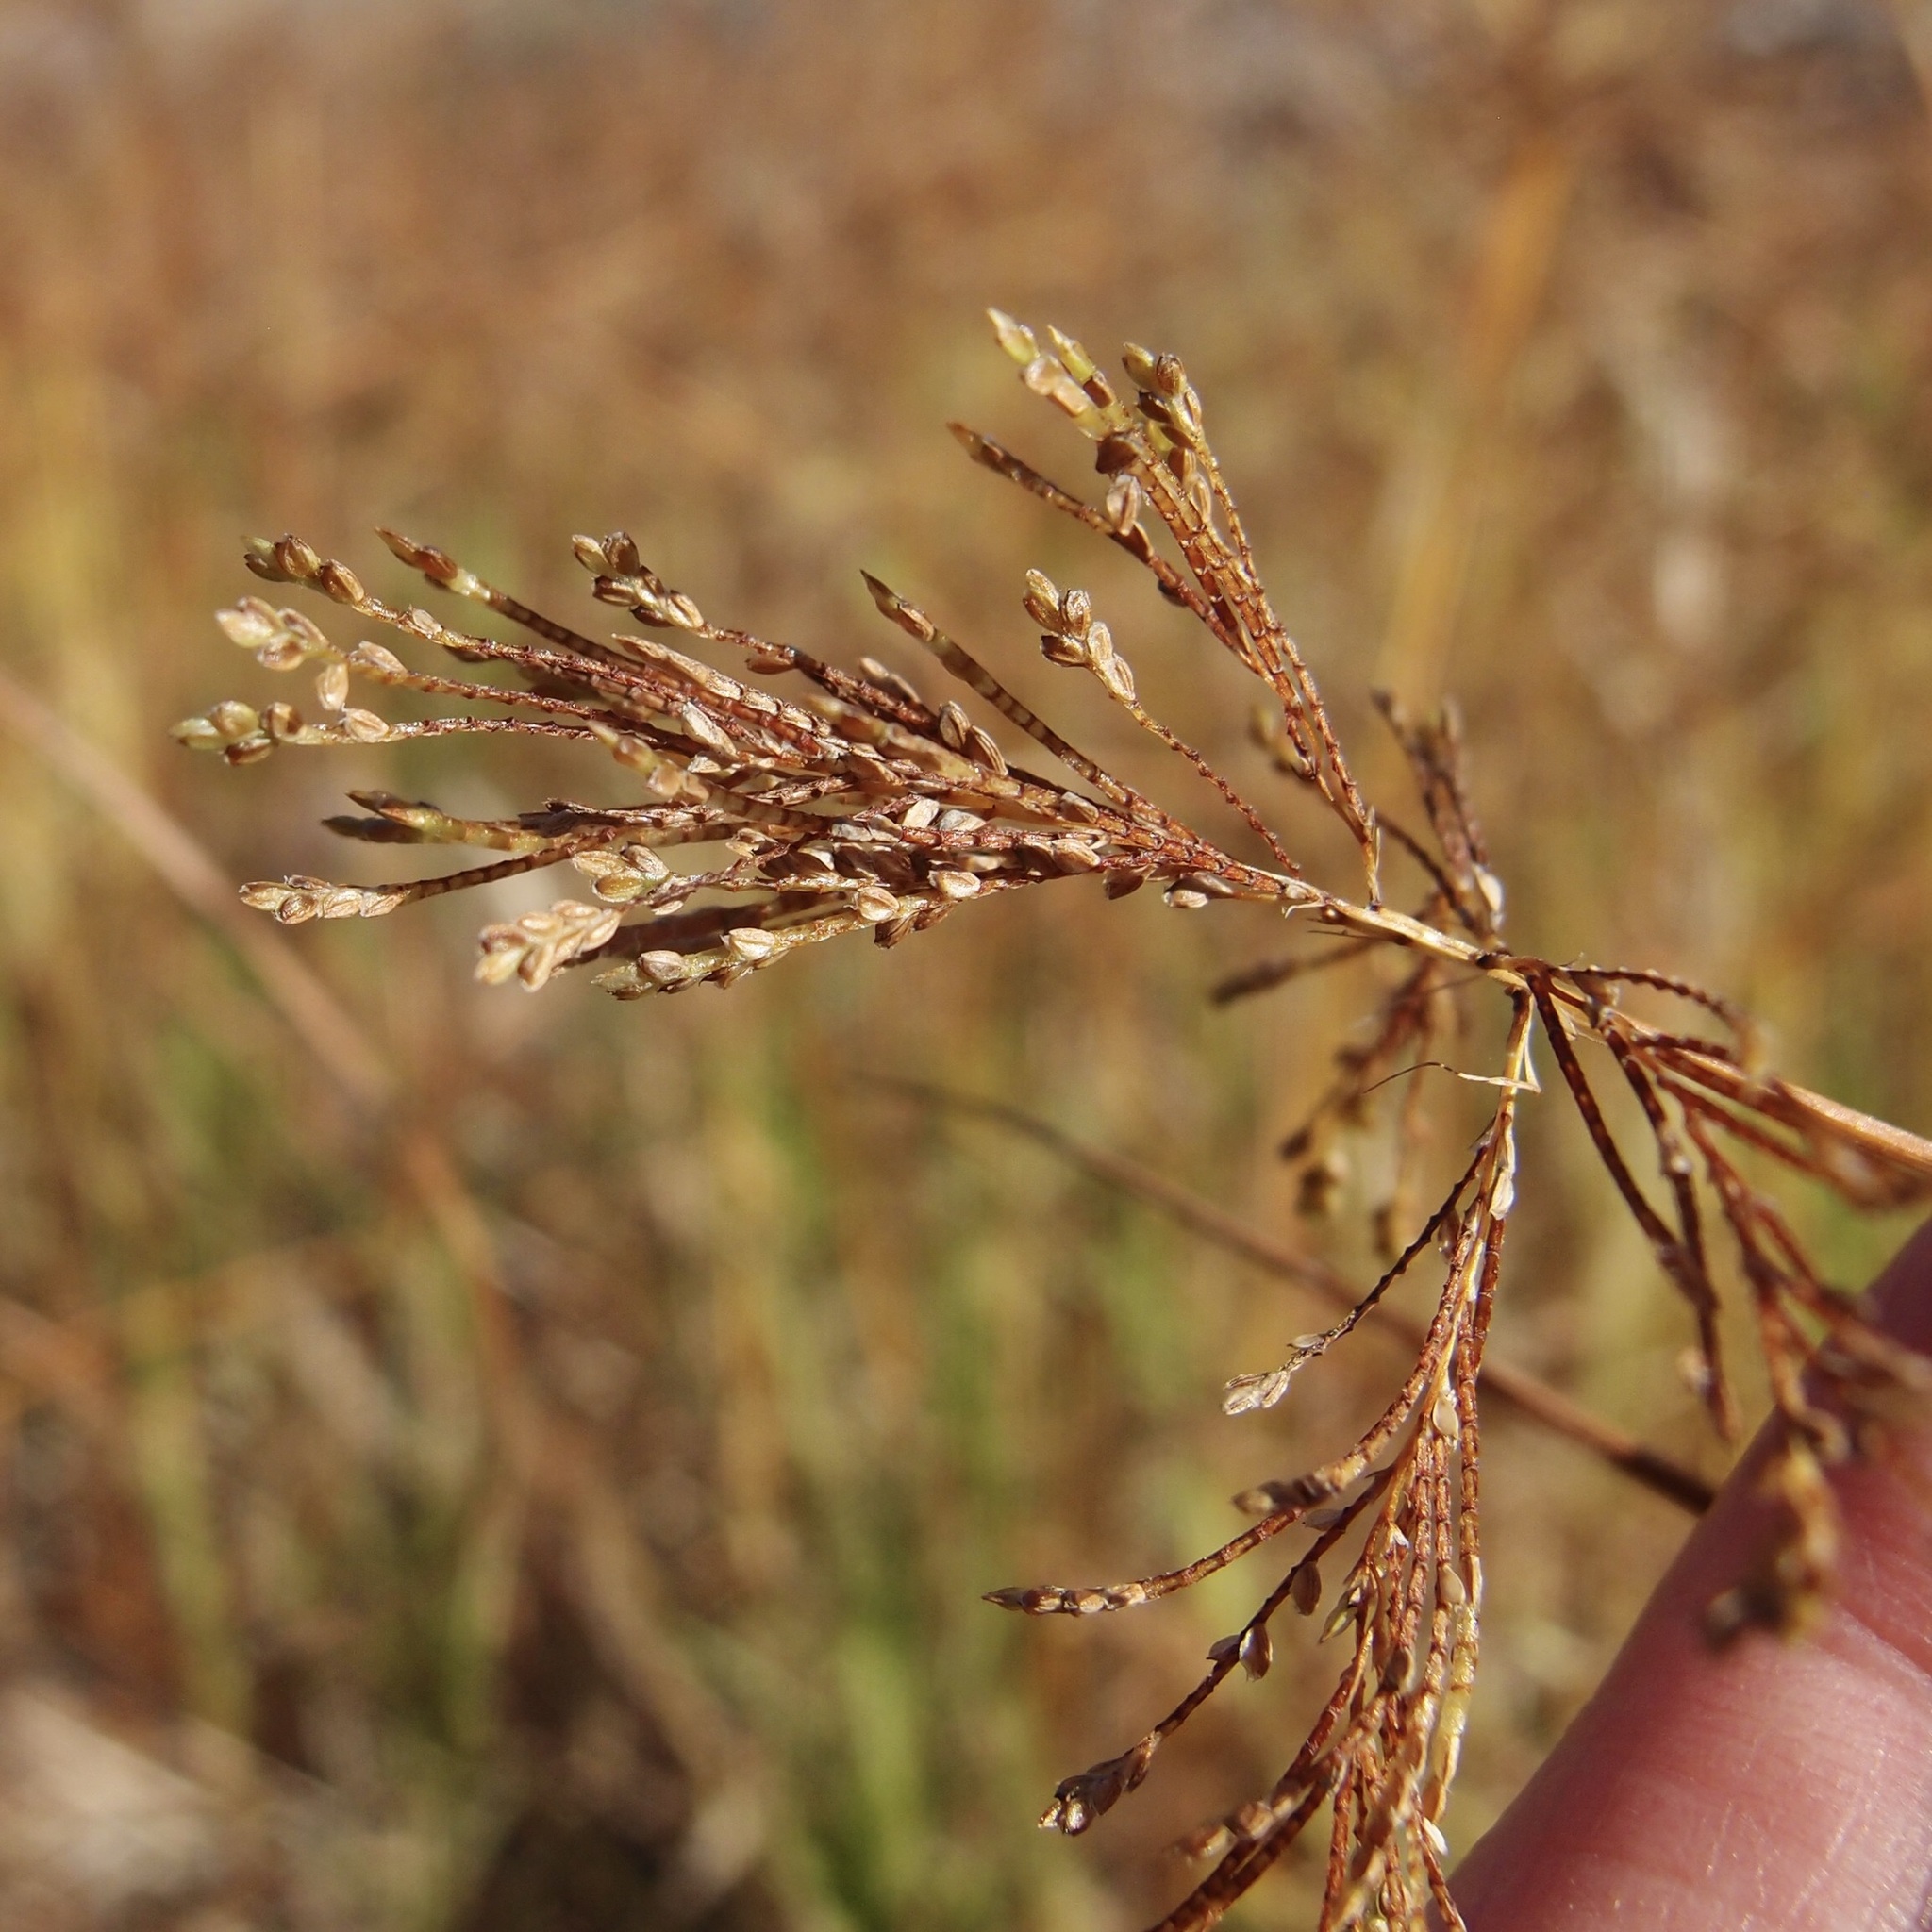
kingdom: Plantae
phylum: Tracheophyta
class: Liliopsida
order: Poales
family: Cyperaceae
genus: Cyperus
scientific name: Cyperus iria
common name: Ricefield flatsedge
